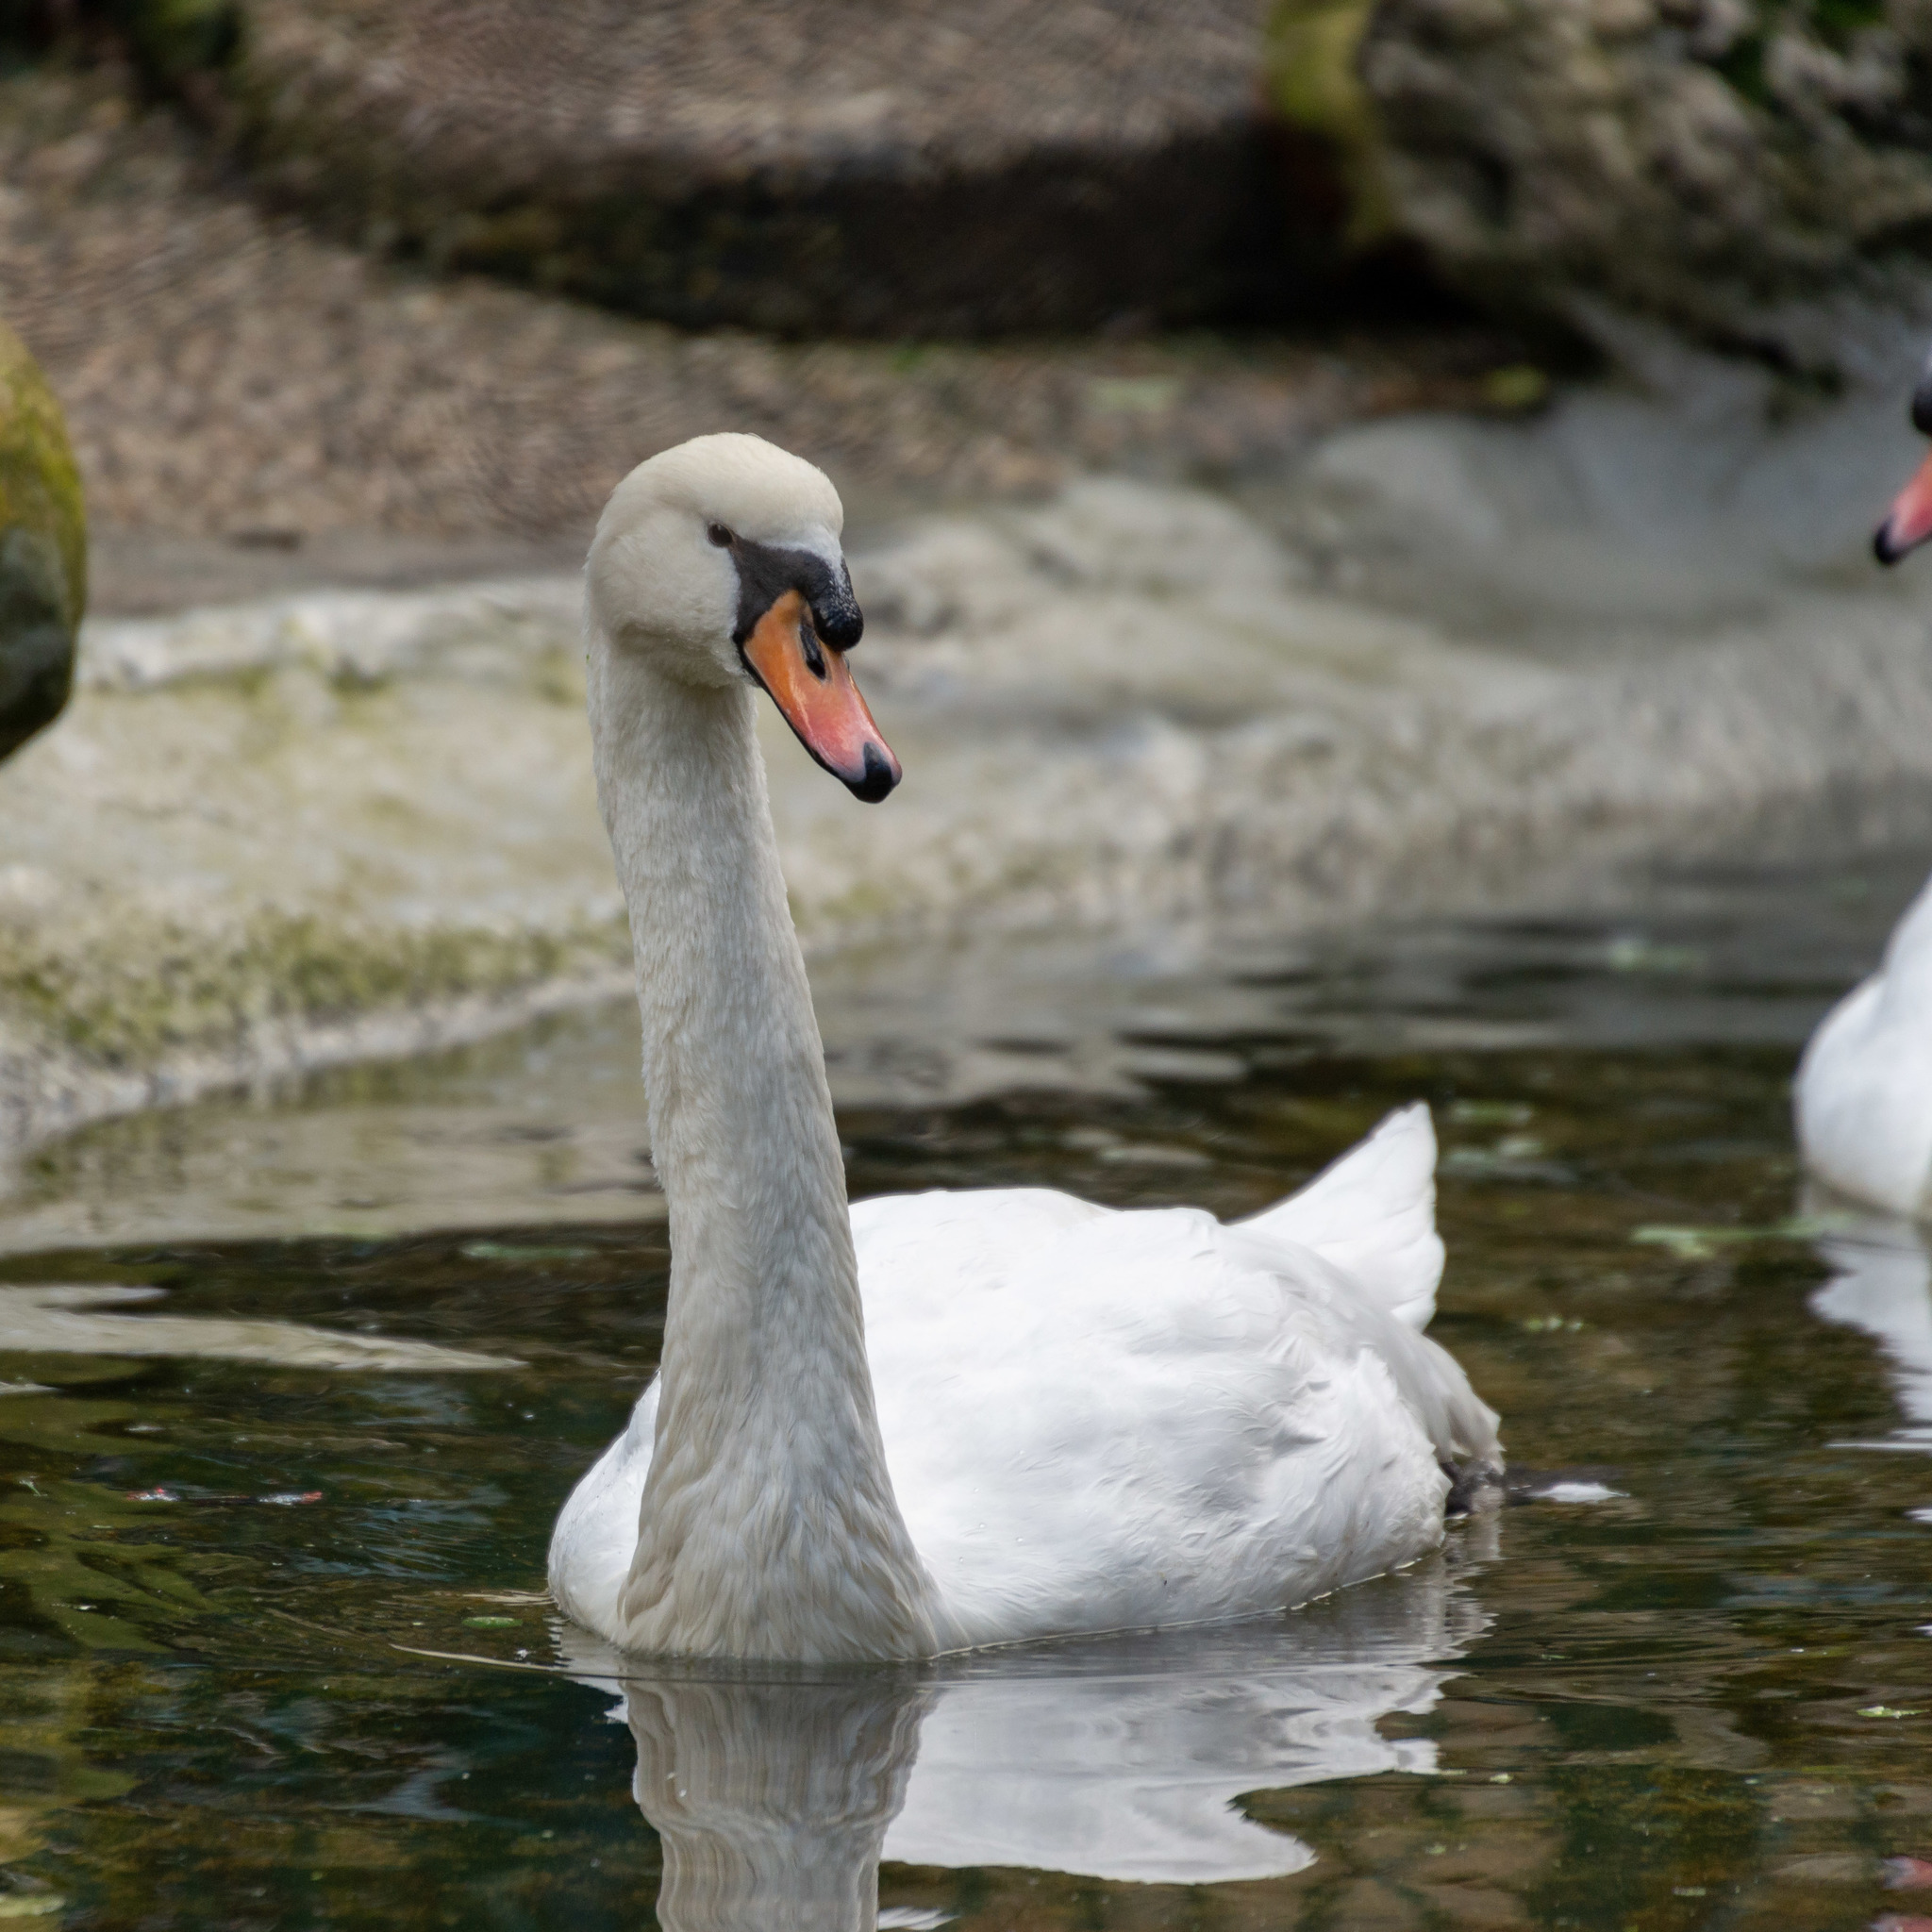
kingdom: Animalia
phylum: Chordata
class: Aves
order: Anseriformes
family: Anatidae
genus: Cygnus
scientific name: Cygnus olor
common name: Mute swan
